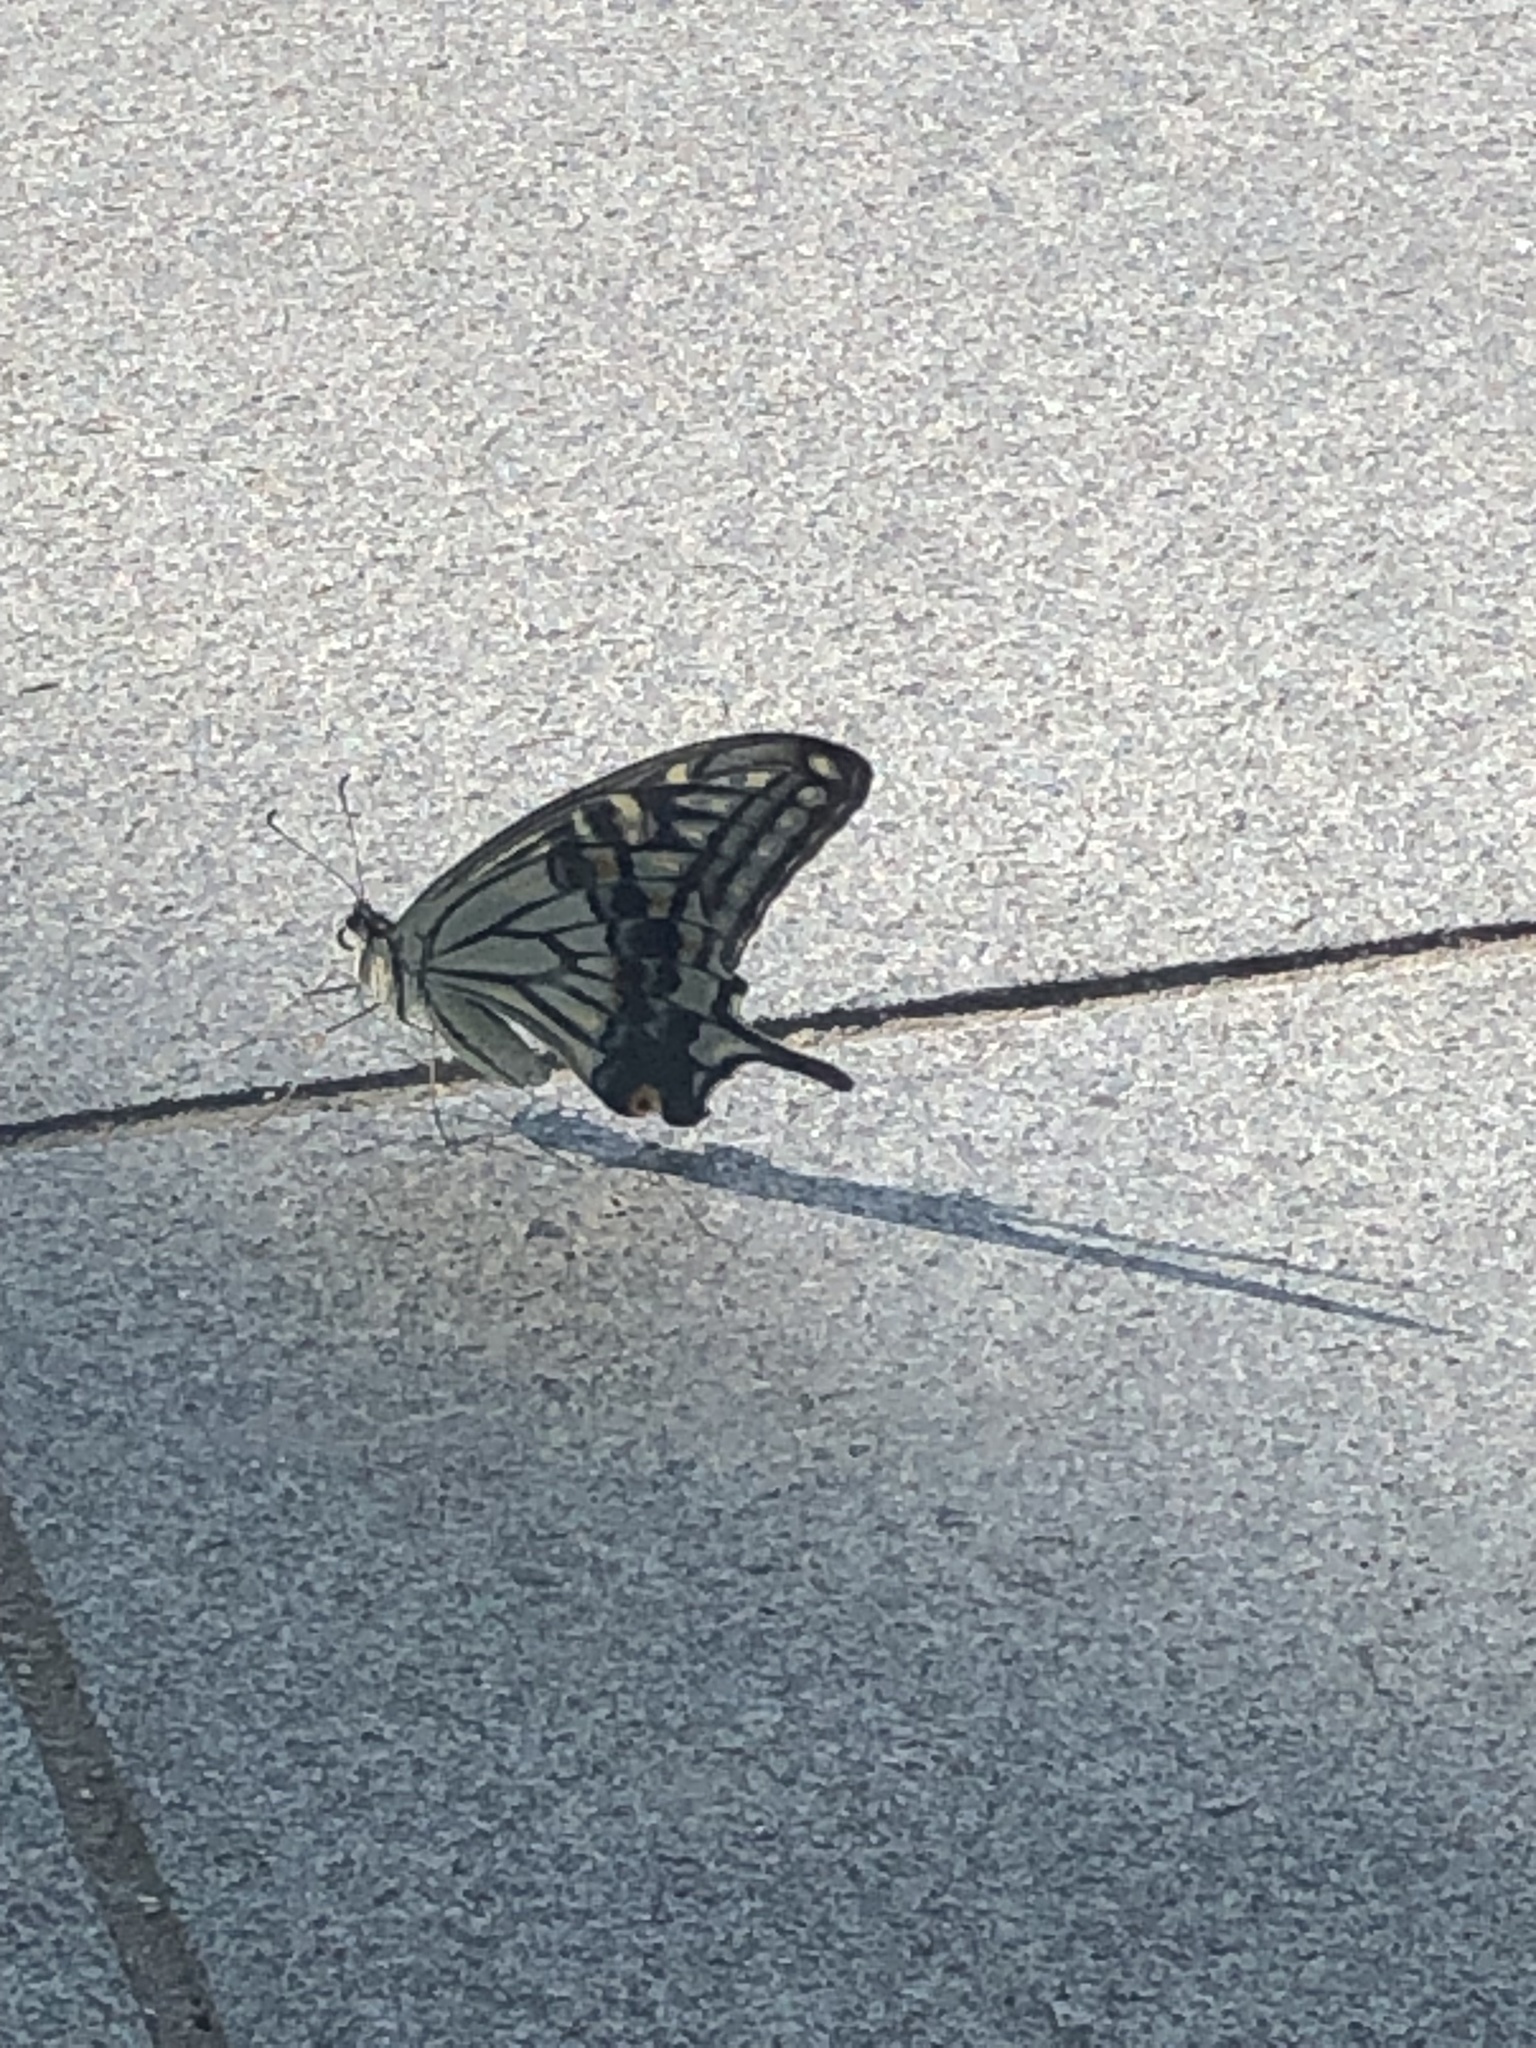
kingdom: Animalia
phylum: Arthropoda
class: Insecta
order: Lepidoptera
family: Papilionidae
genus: Papilio
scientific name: Papilio xuthus
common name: Asian swallowtail
